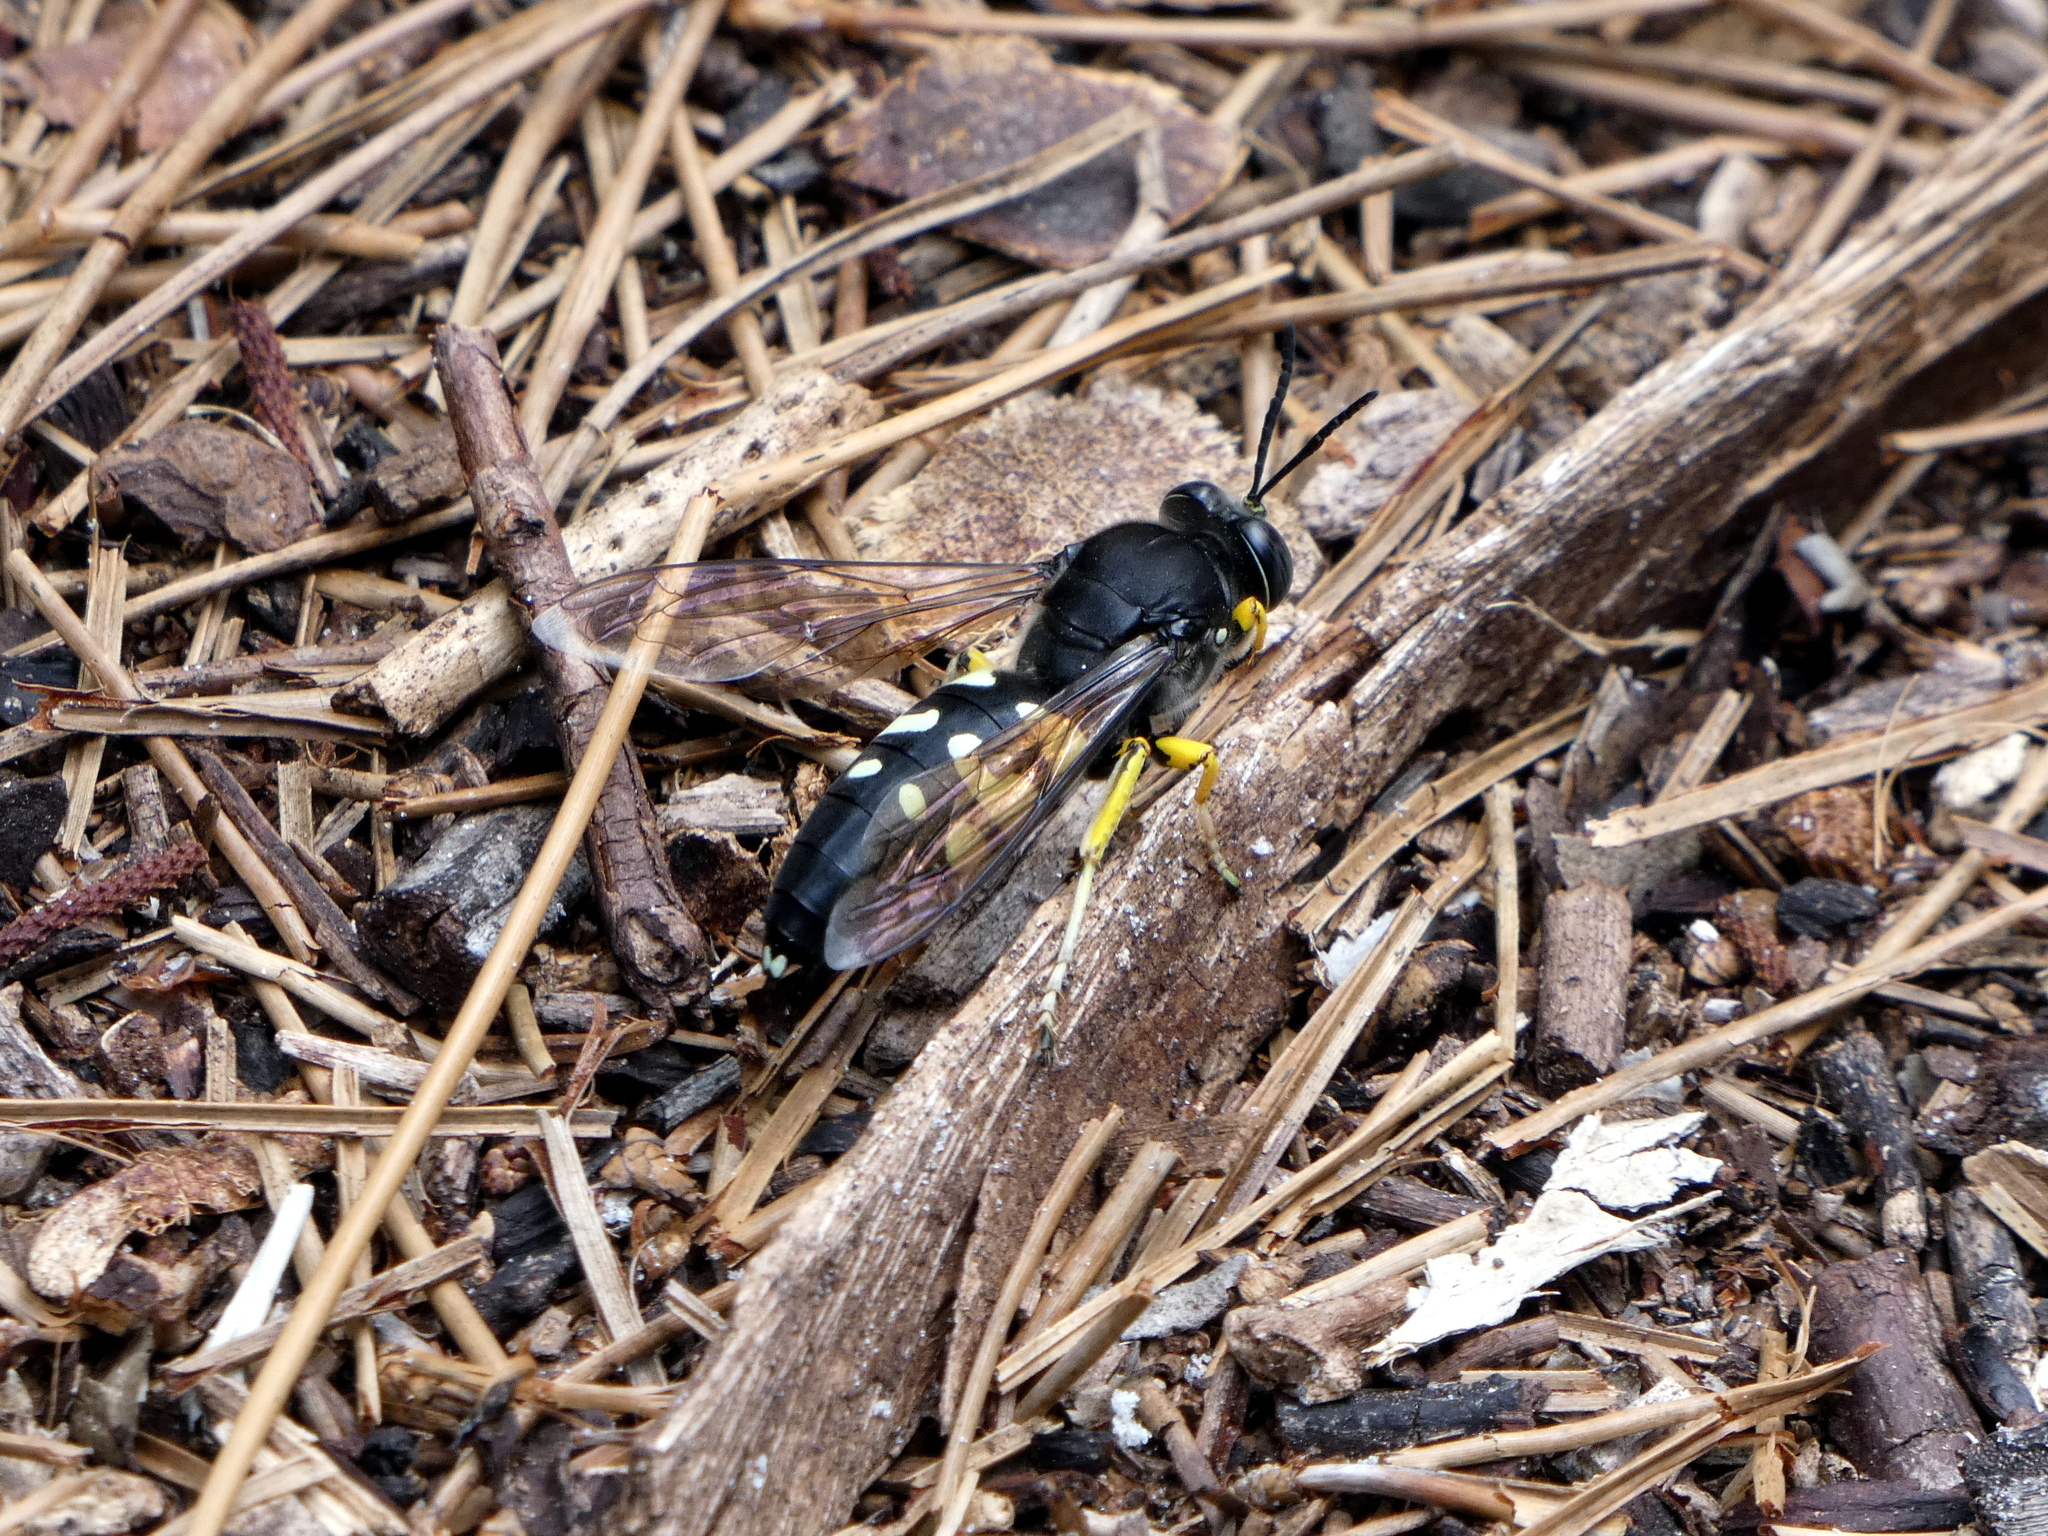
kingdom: Animalia
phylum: Arthropoda
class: Insecta
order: Hymenoptera
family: Crabronidae
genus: Stictia
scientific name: Stictia carolina
